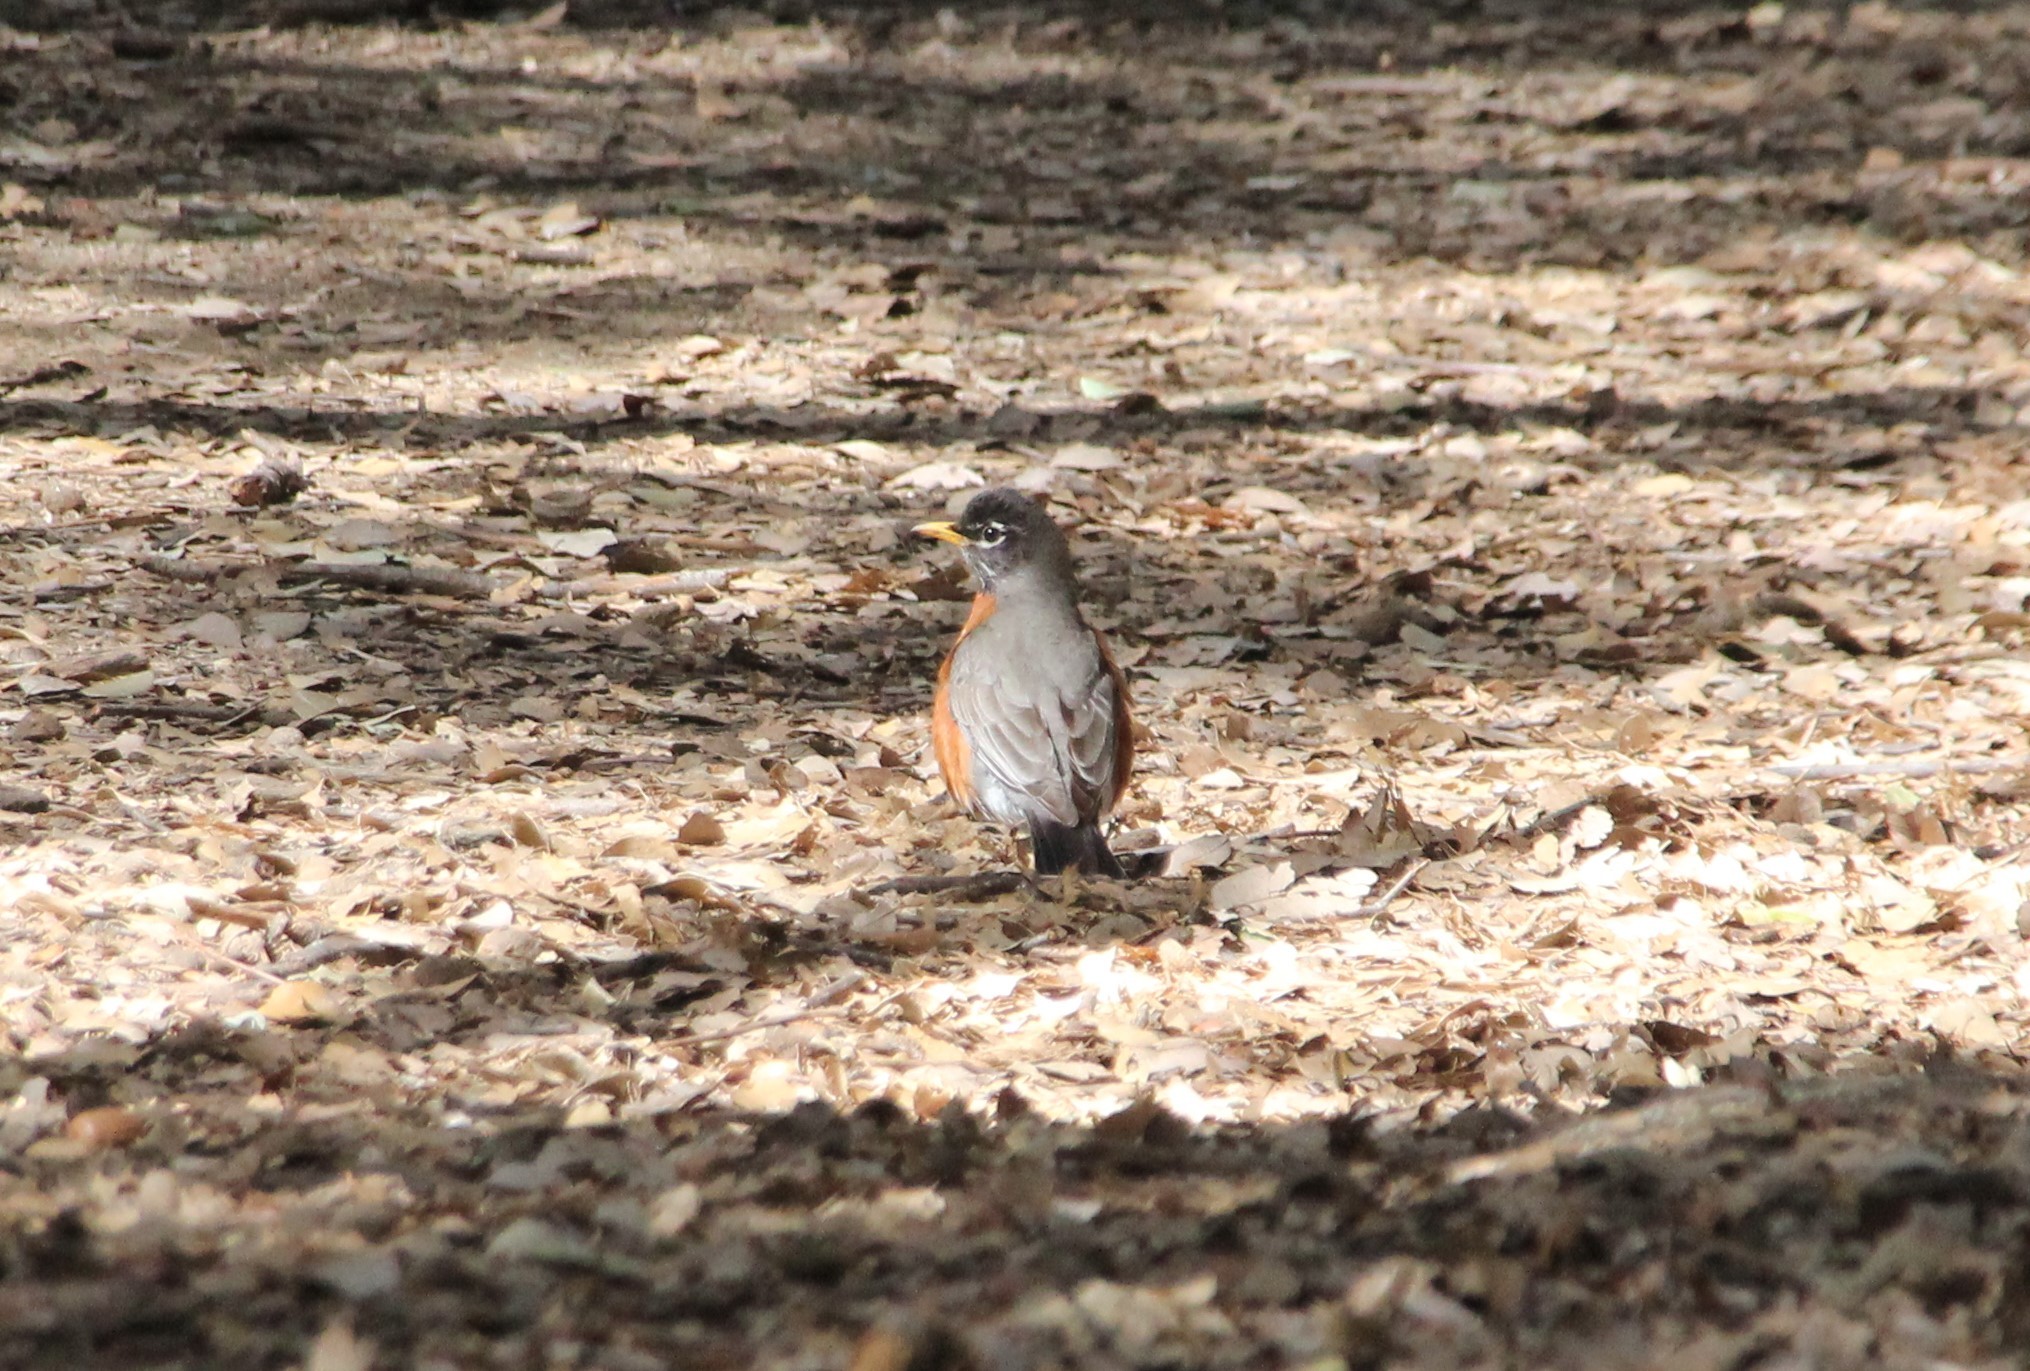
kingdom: Animalia
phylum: Chordata
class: Aves
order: Passeriformes
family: Turdidae
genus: Turdus
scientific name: Turdus migratorius
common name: American robin
